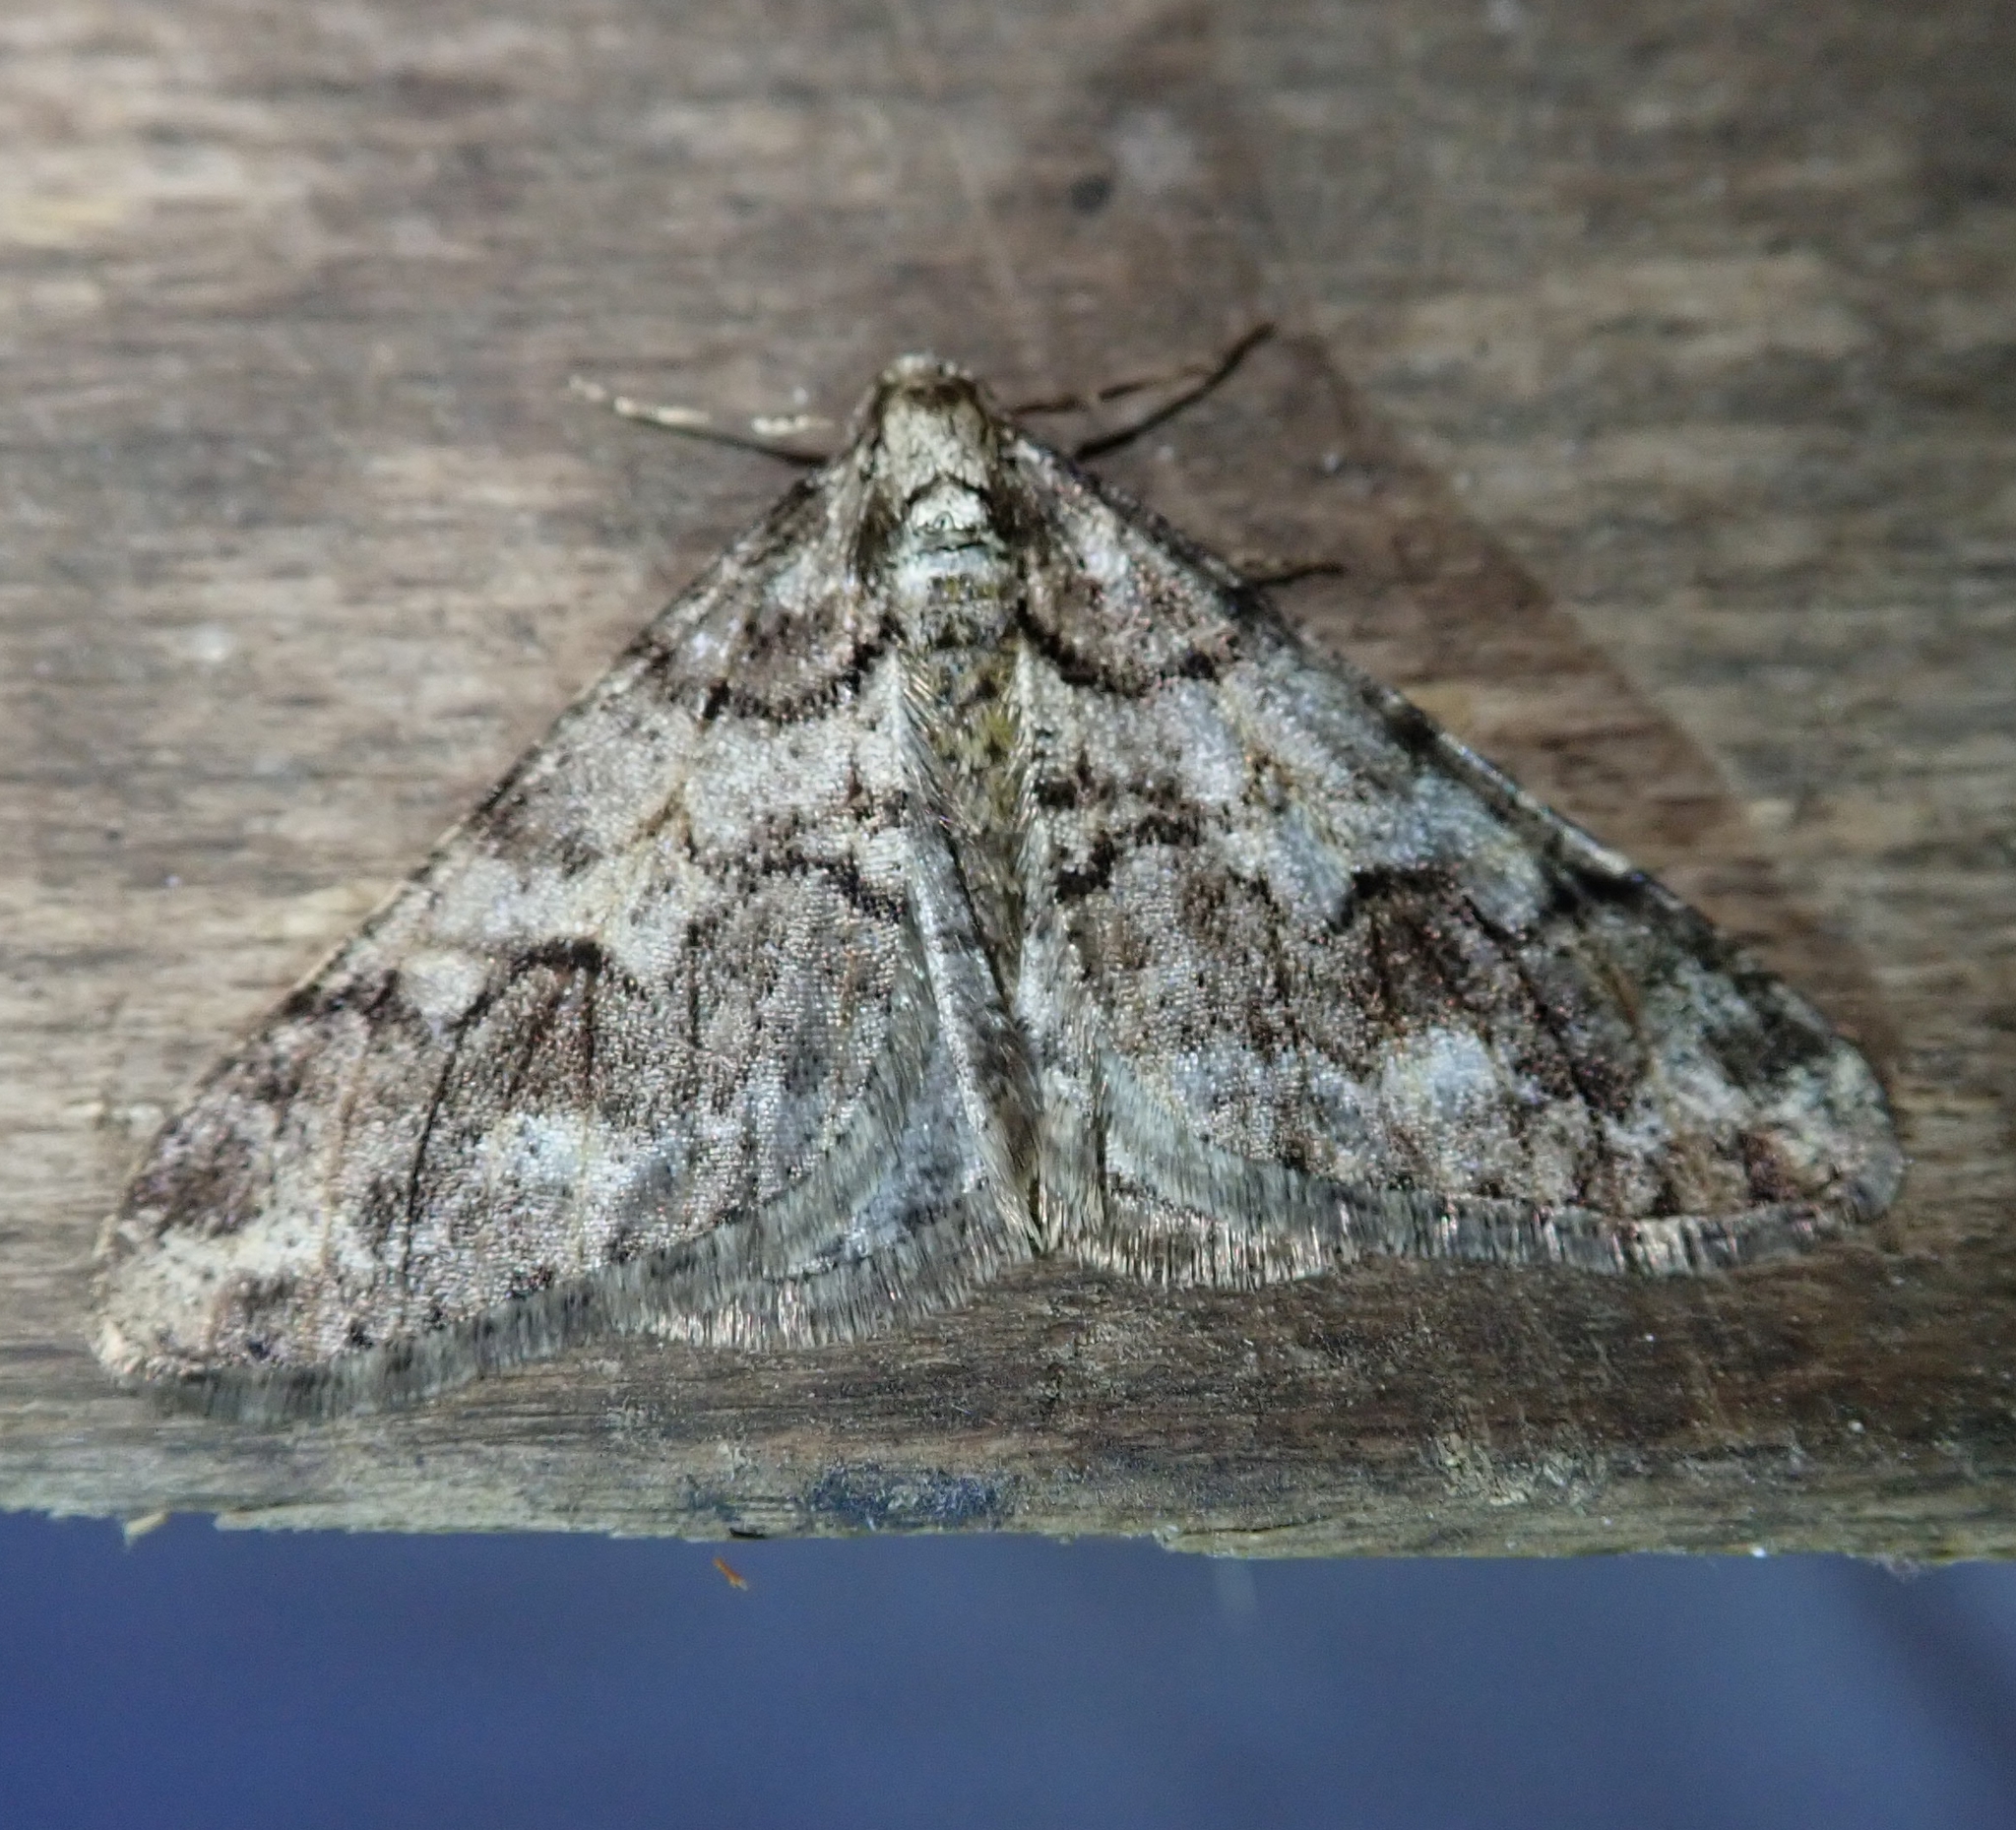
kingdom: Animalia
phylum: Arthropoda
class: Insecta
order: Lepidoptera
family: Geometridae
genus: Agriopis
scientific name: Agriopis leucophaearia
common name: Spring usher
